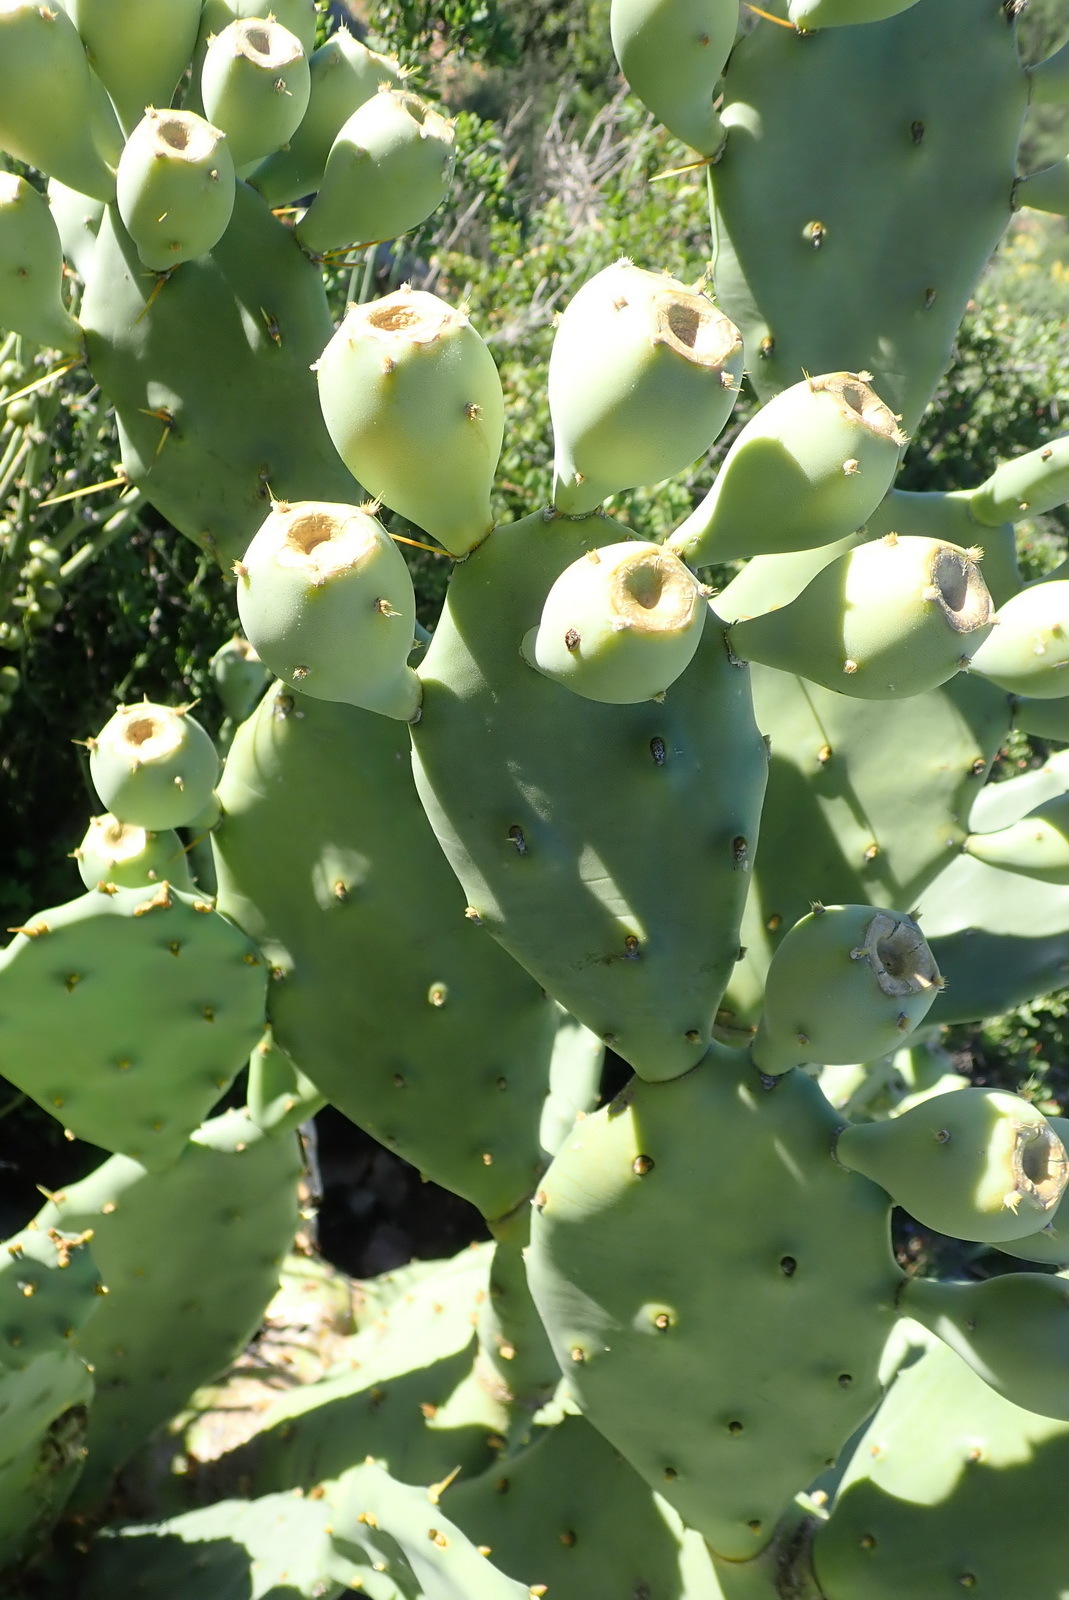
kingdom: Plantae
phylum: Tracheophyta
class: Magnoliopsida
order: Caryophyllales
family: Cactaceae
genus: Opuntia
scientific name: Opuntia stricta
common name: Erect pricklypear
